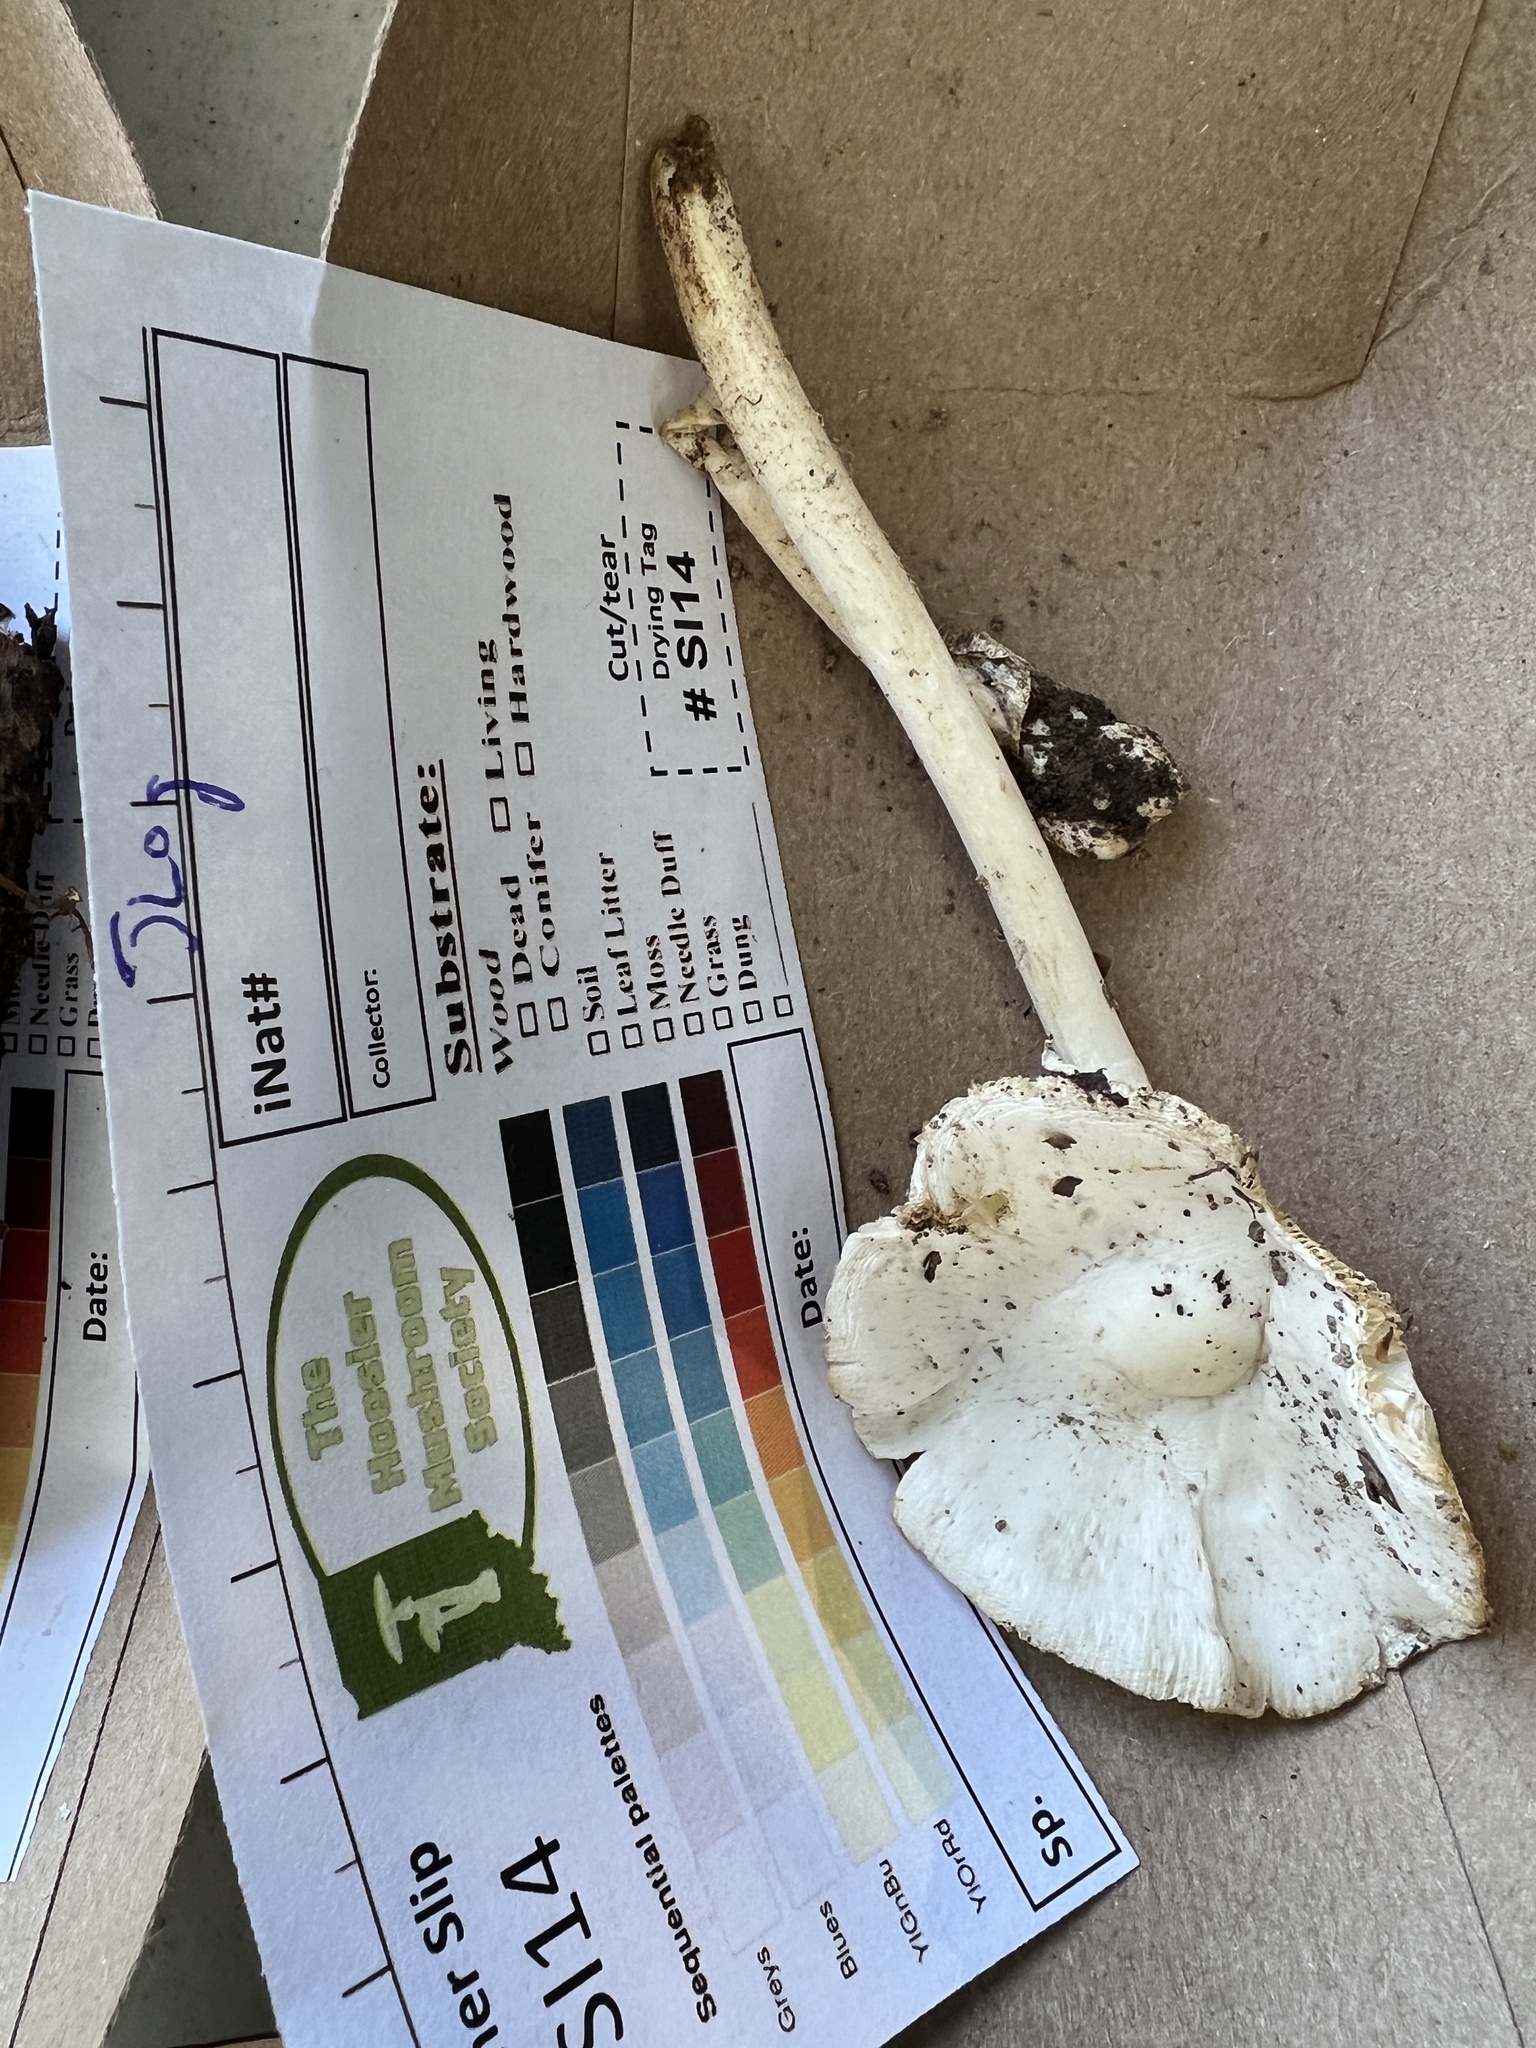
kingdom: Fungi
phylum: Basidiomycota
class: Agaricomycetes
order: Agaricales
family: Amanitaceae
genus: Amanita
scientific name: Amanita bisporigera
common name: Eastern north american destroying angel
